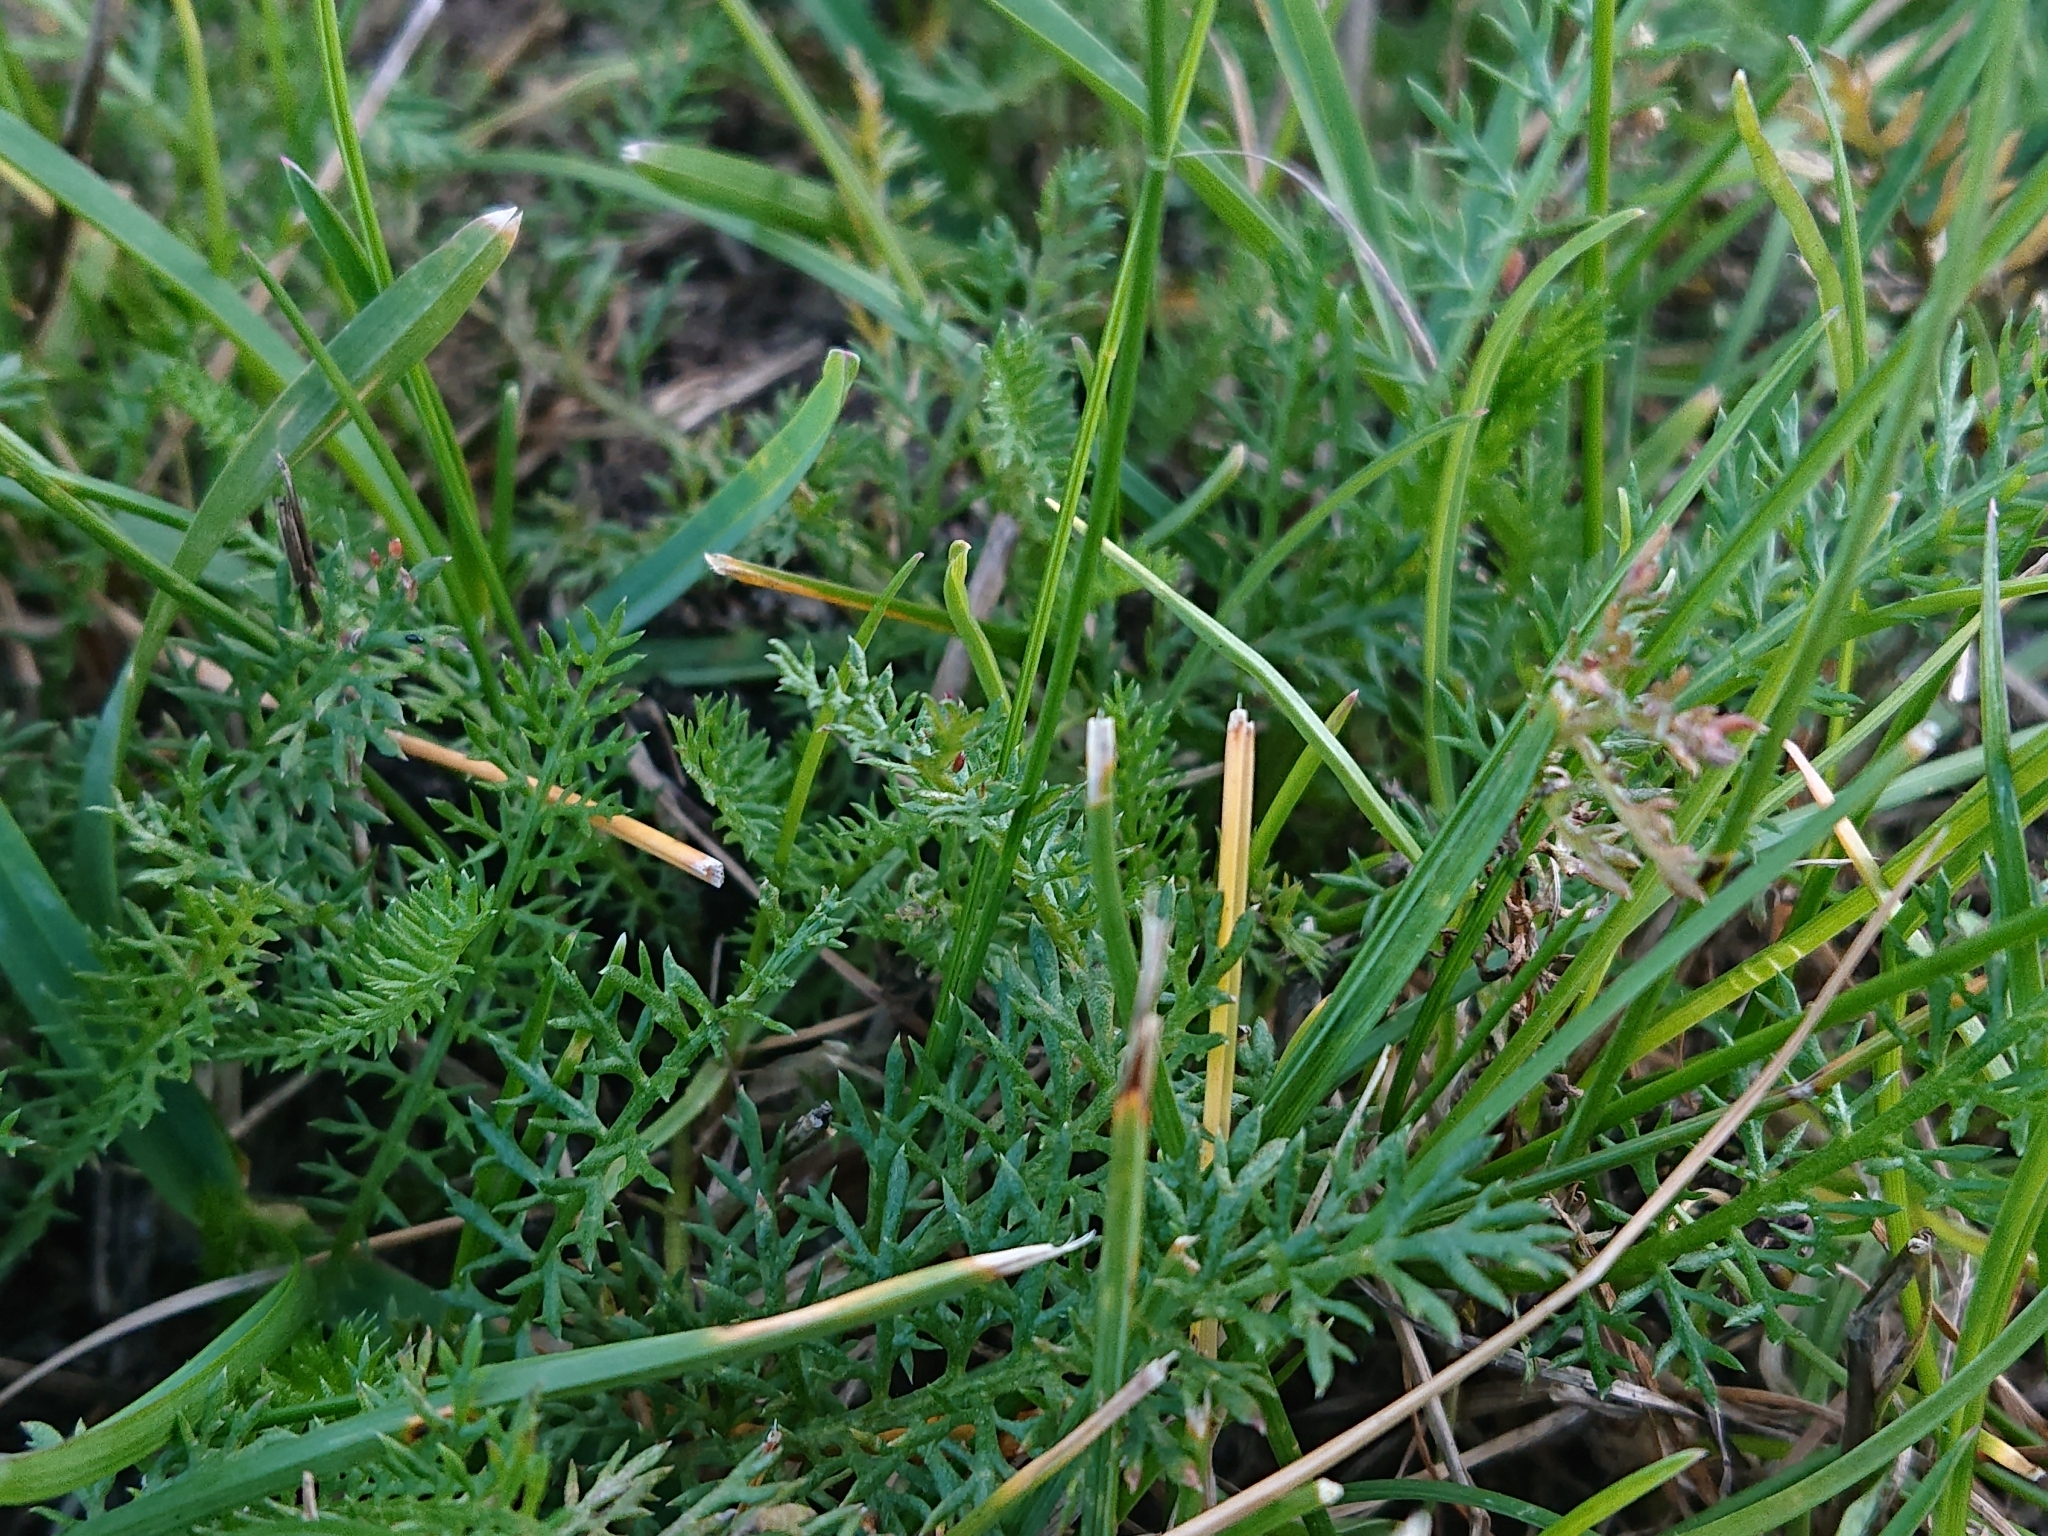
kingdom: Plantae
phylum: Tracheophyta
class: Magnoliopsida
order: Asterales
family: Asteraceae
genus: Achillea
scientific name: Achillea millefolium
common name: Yarrow
